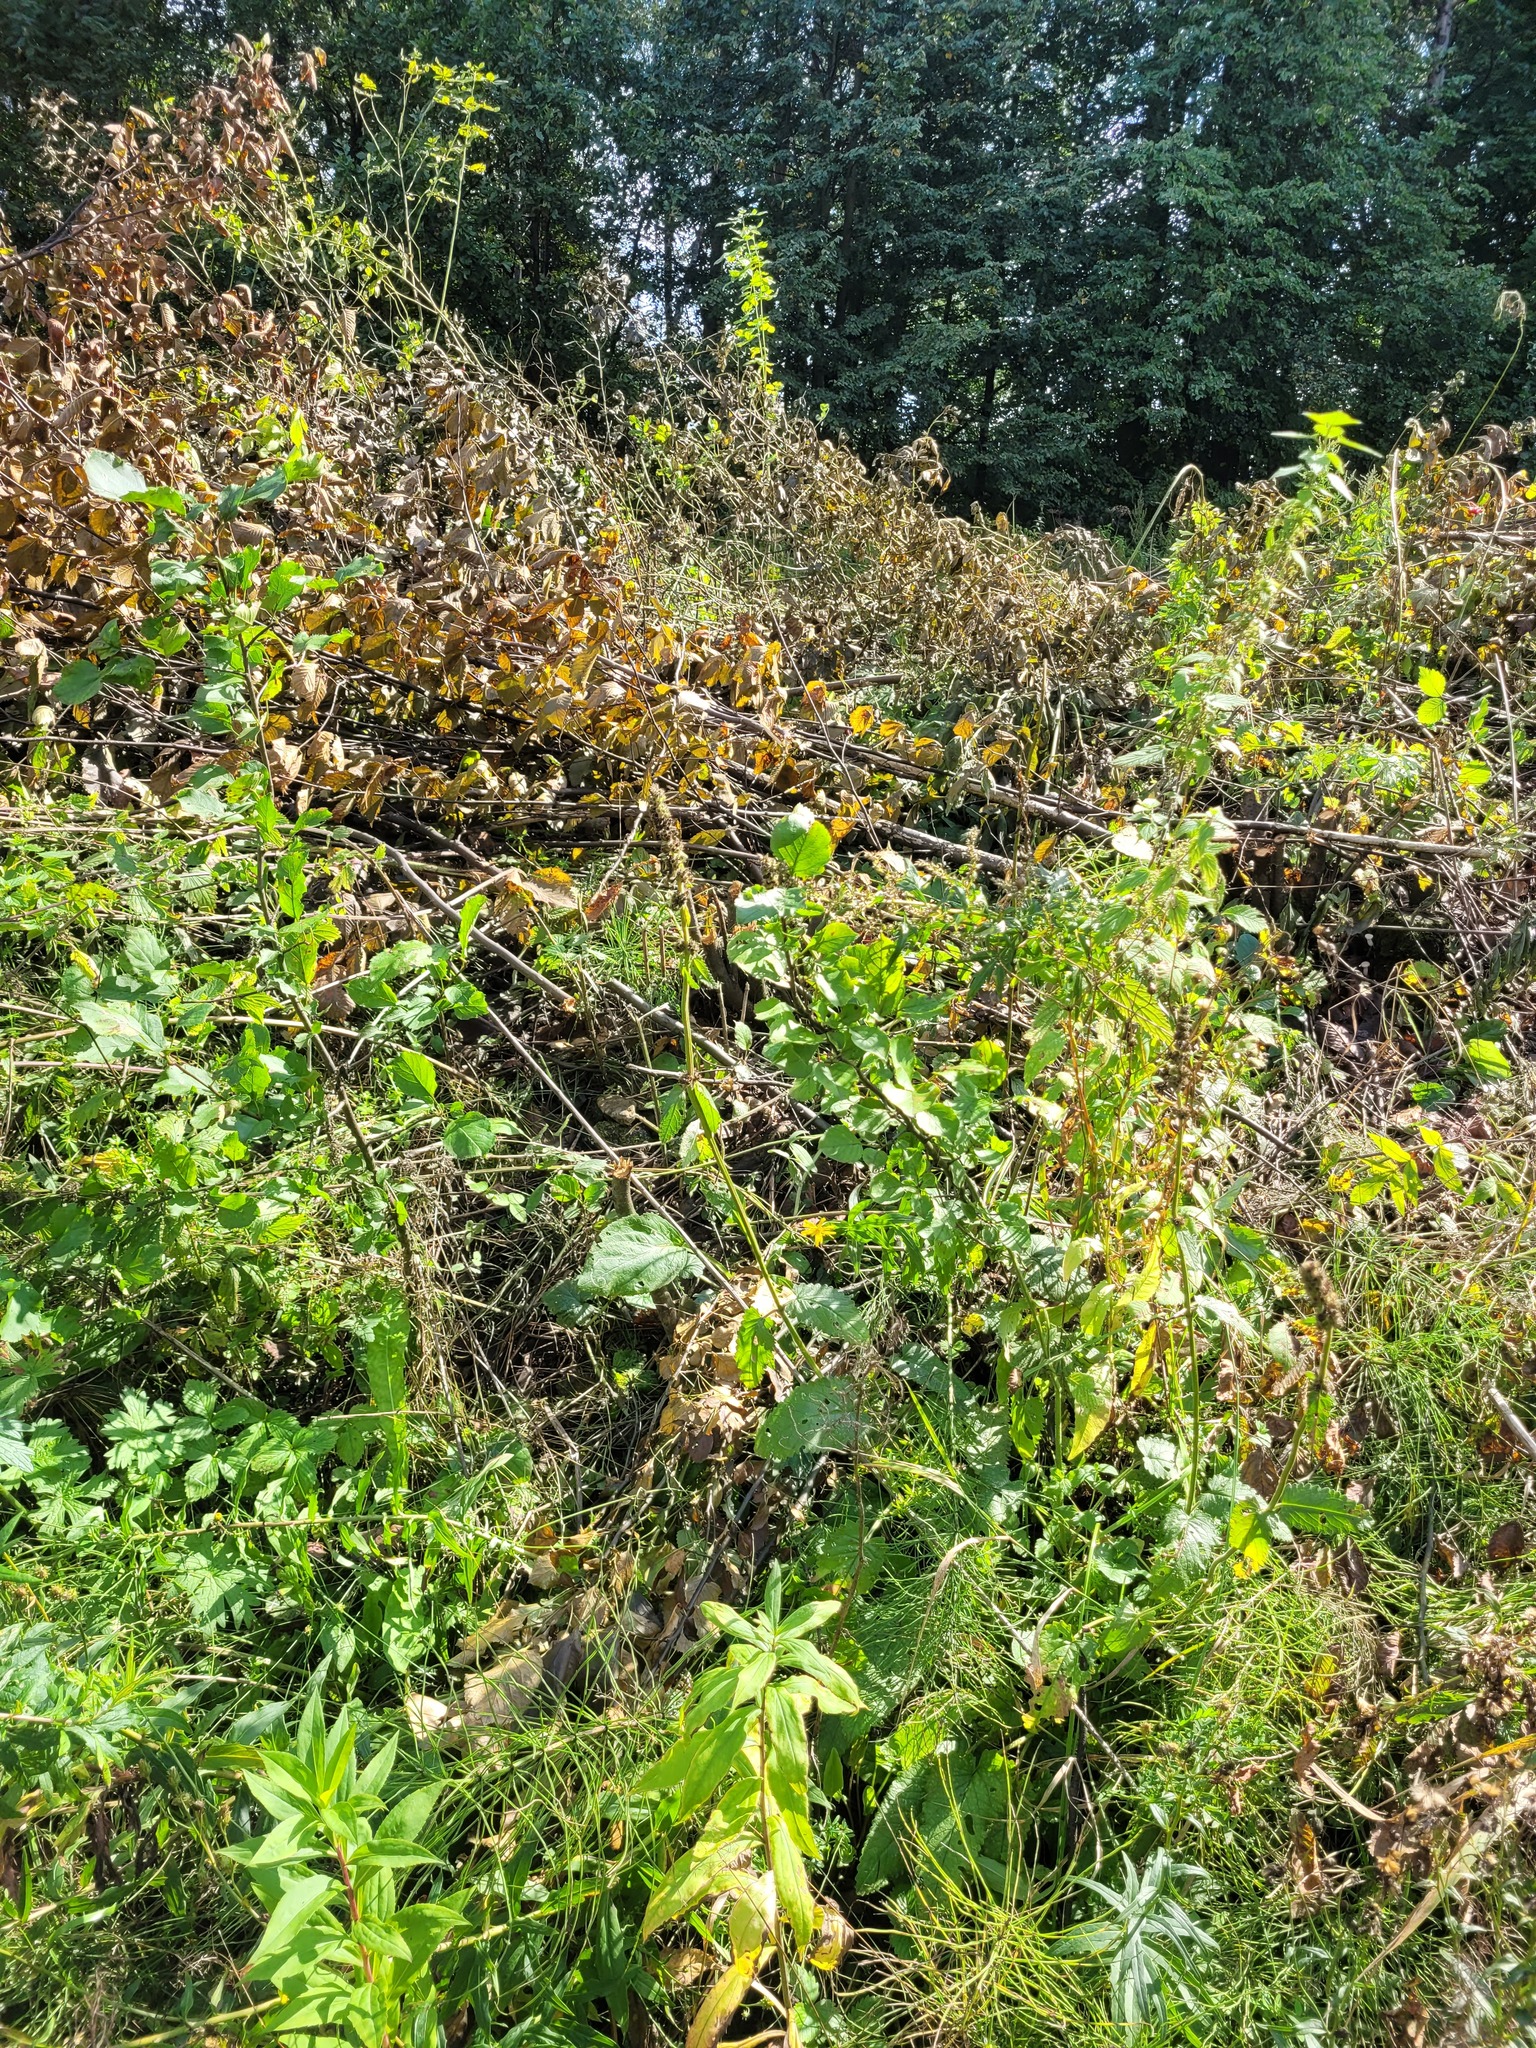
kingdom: Plantae
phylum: Tracheophyta
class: Magnoliopsida
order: Lamiales
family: Lamiaceae
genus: Betonica
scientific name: Betonica officinalis
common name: Bishop's-wort
